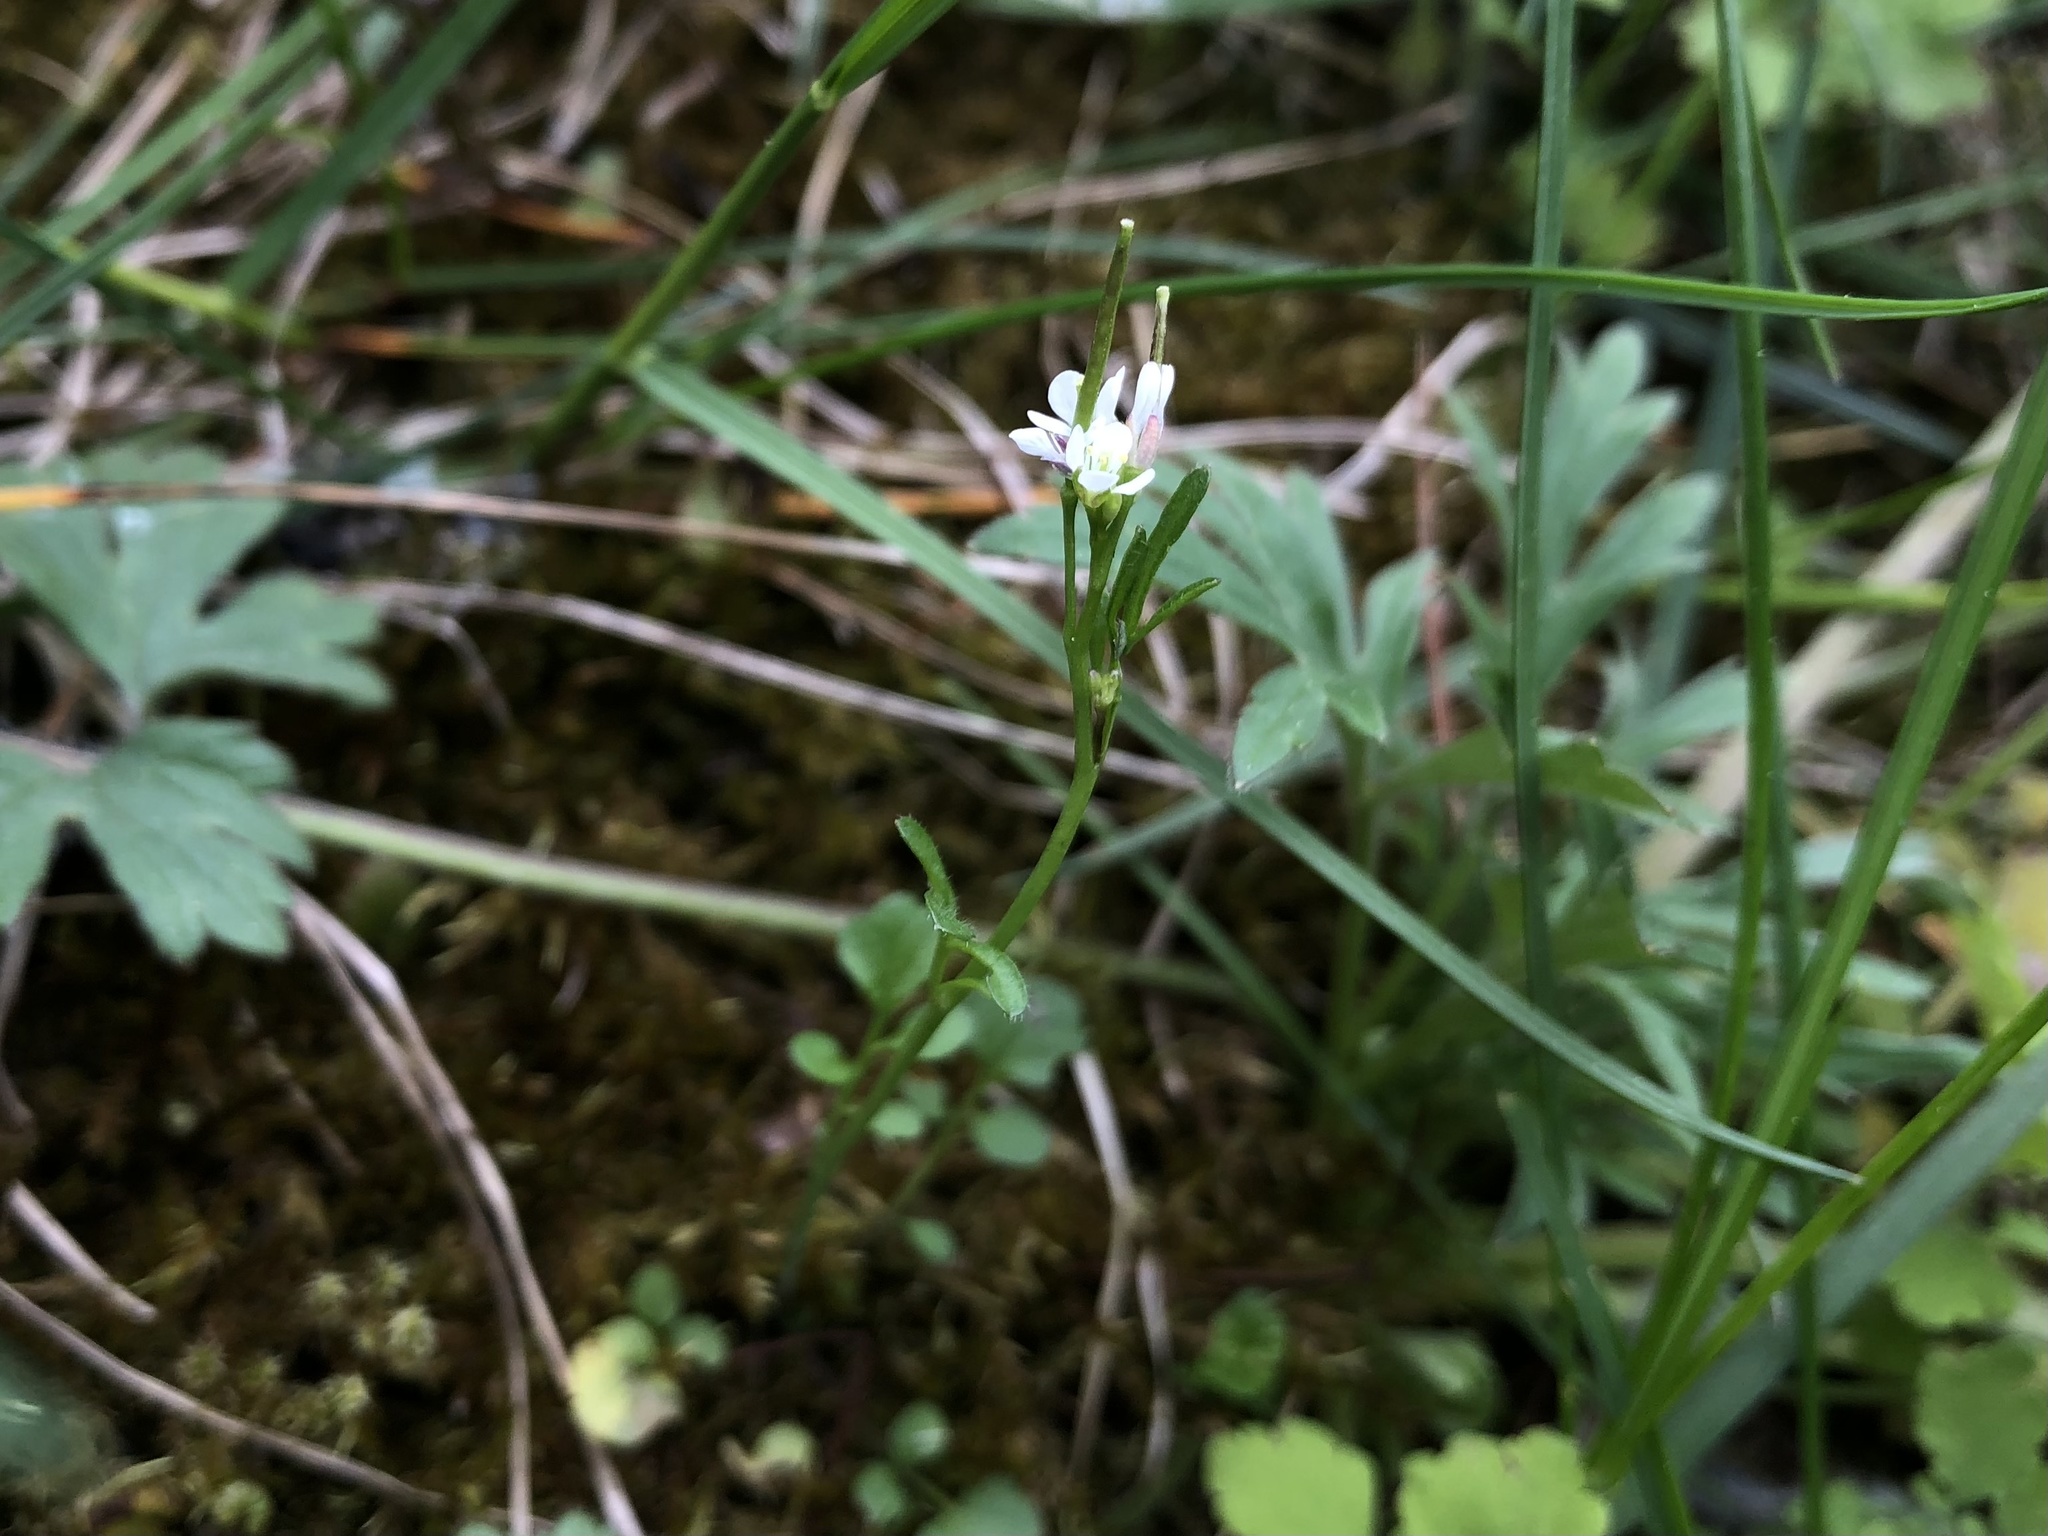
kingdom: Plantae
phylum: Tracheophyta
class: Magnoliopsida
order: Brassicales
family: Brassicaceae
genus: Cardamine
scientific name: Cardamine hirsuta
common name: Hairy bittercress
